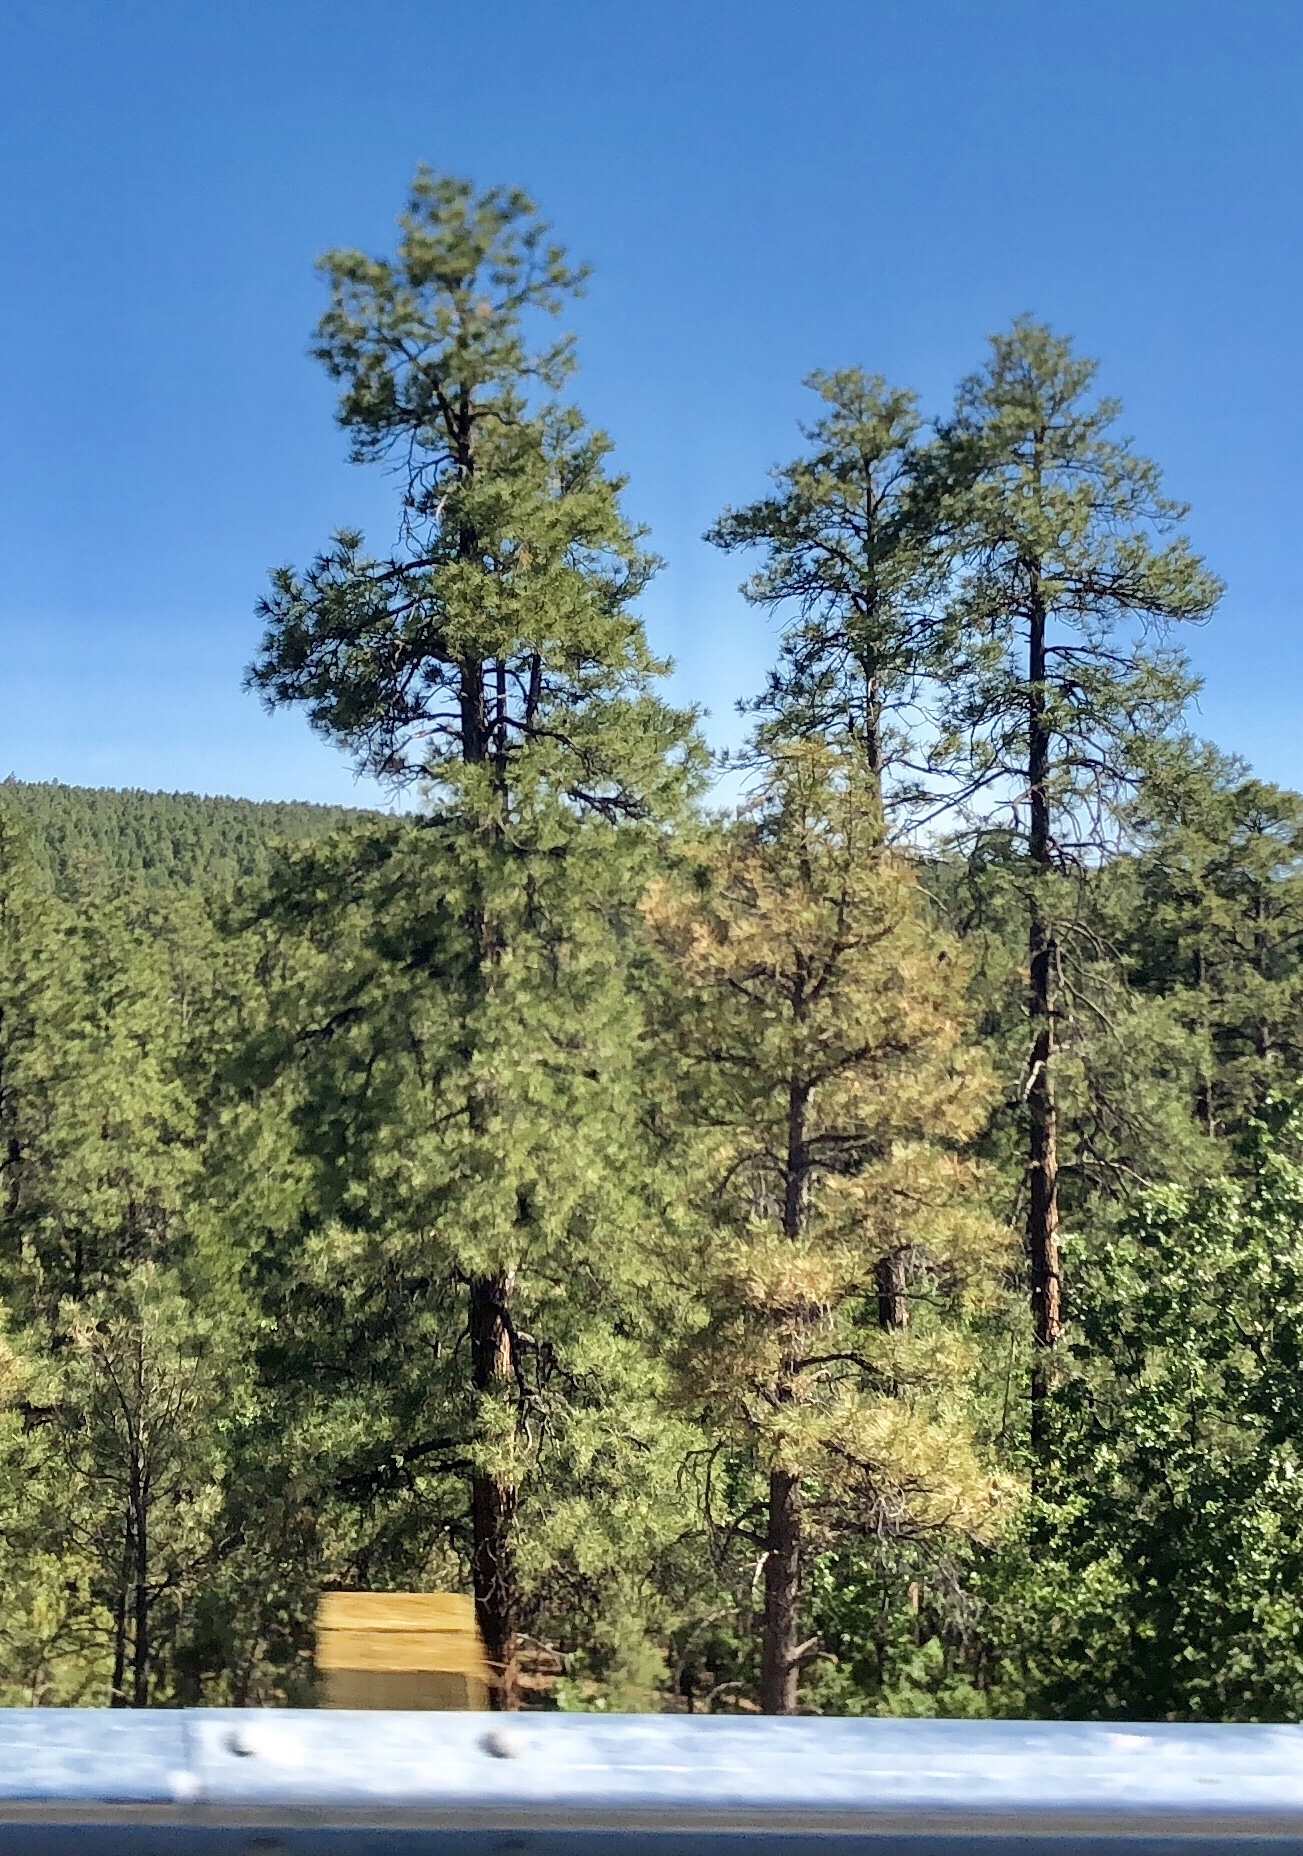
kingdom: Plantae
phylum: Tracheophyta
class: Pinopsida
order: Pinales
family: Pinaceae
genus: Pinus
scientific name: Pinus ponderosa
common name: Western yellow-pine
